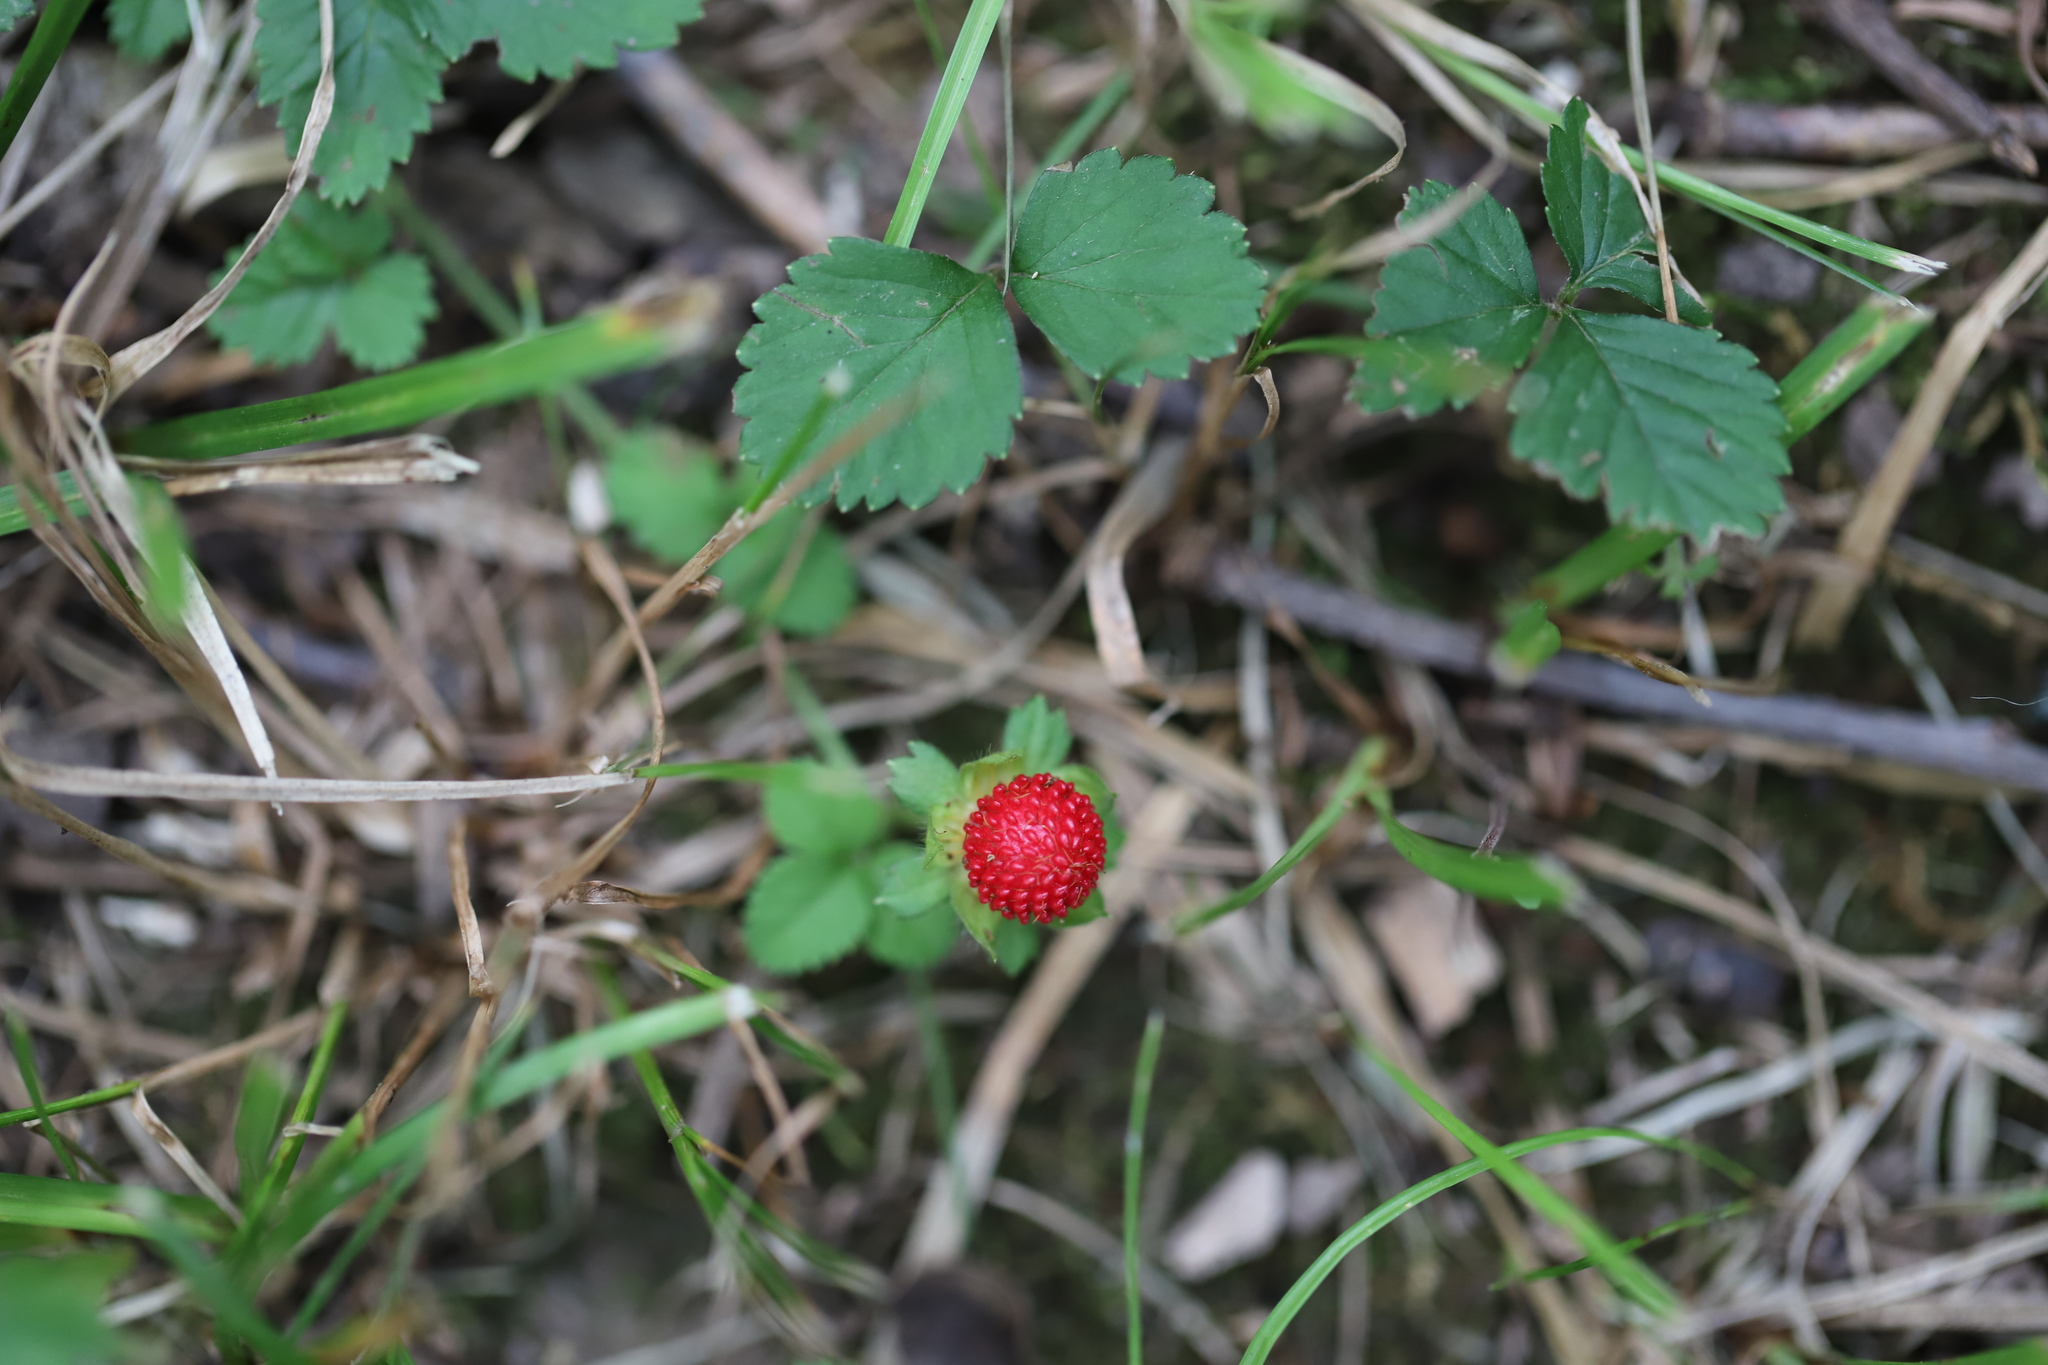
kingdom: Plantae
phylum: Tracheophyta
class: Magnoliopsida
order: Rosales
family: Rosaceae
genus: Potentilla
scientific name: Potentilla indica
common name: Yellow-flowered strawberry
